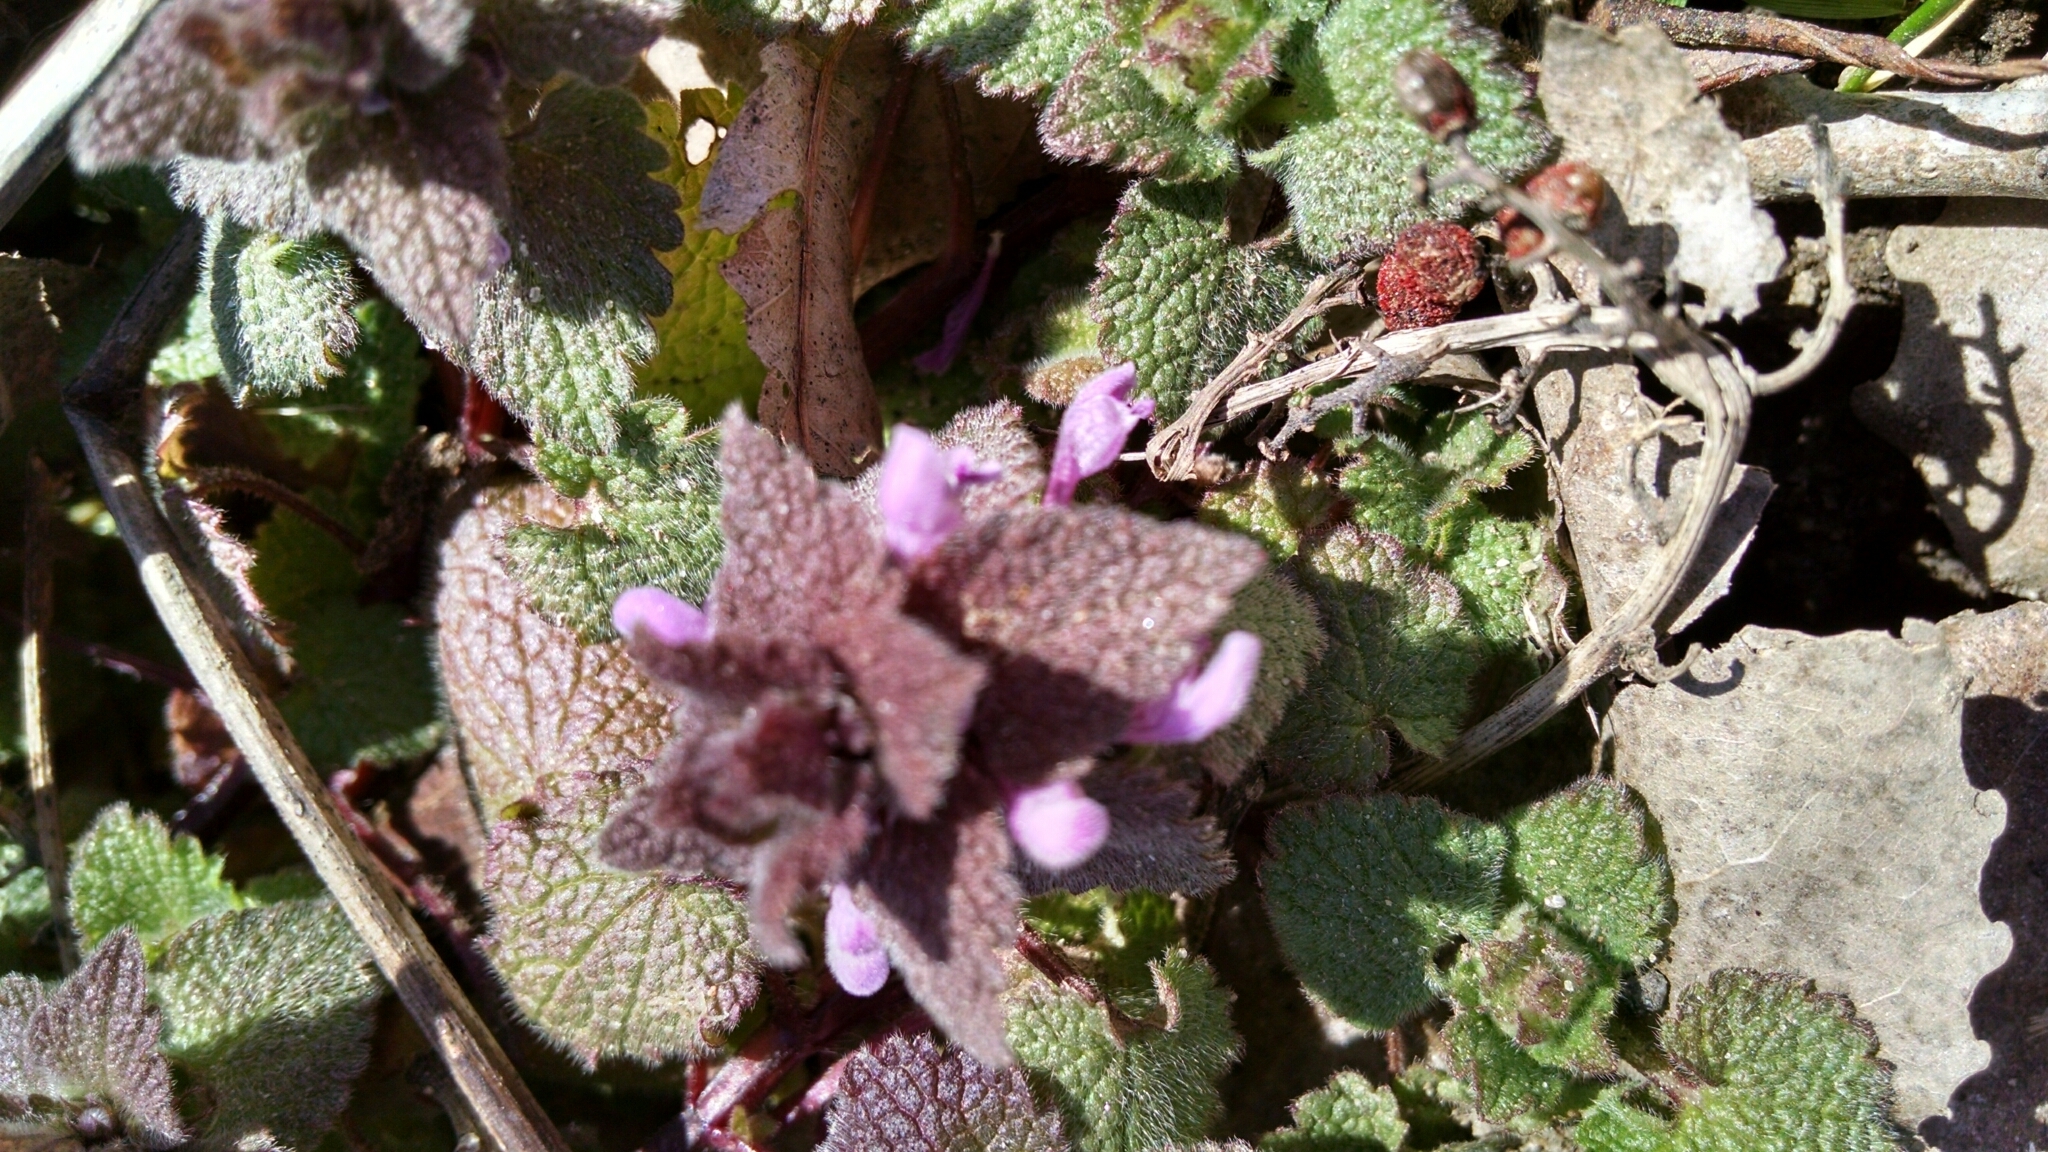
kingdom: Plantae
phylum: Tracheophyta
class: Magnoliopsida
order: Lamiales
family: Lamiaceae
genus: Lamium
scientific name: Lamium purpureum
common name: Red dead-nettle
